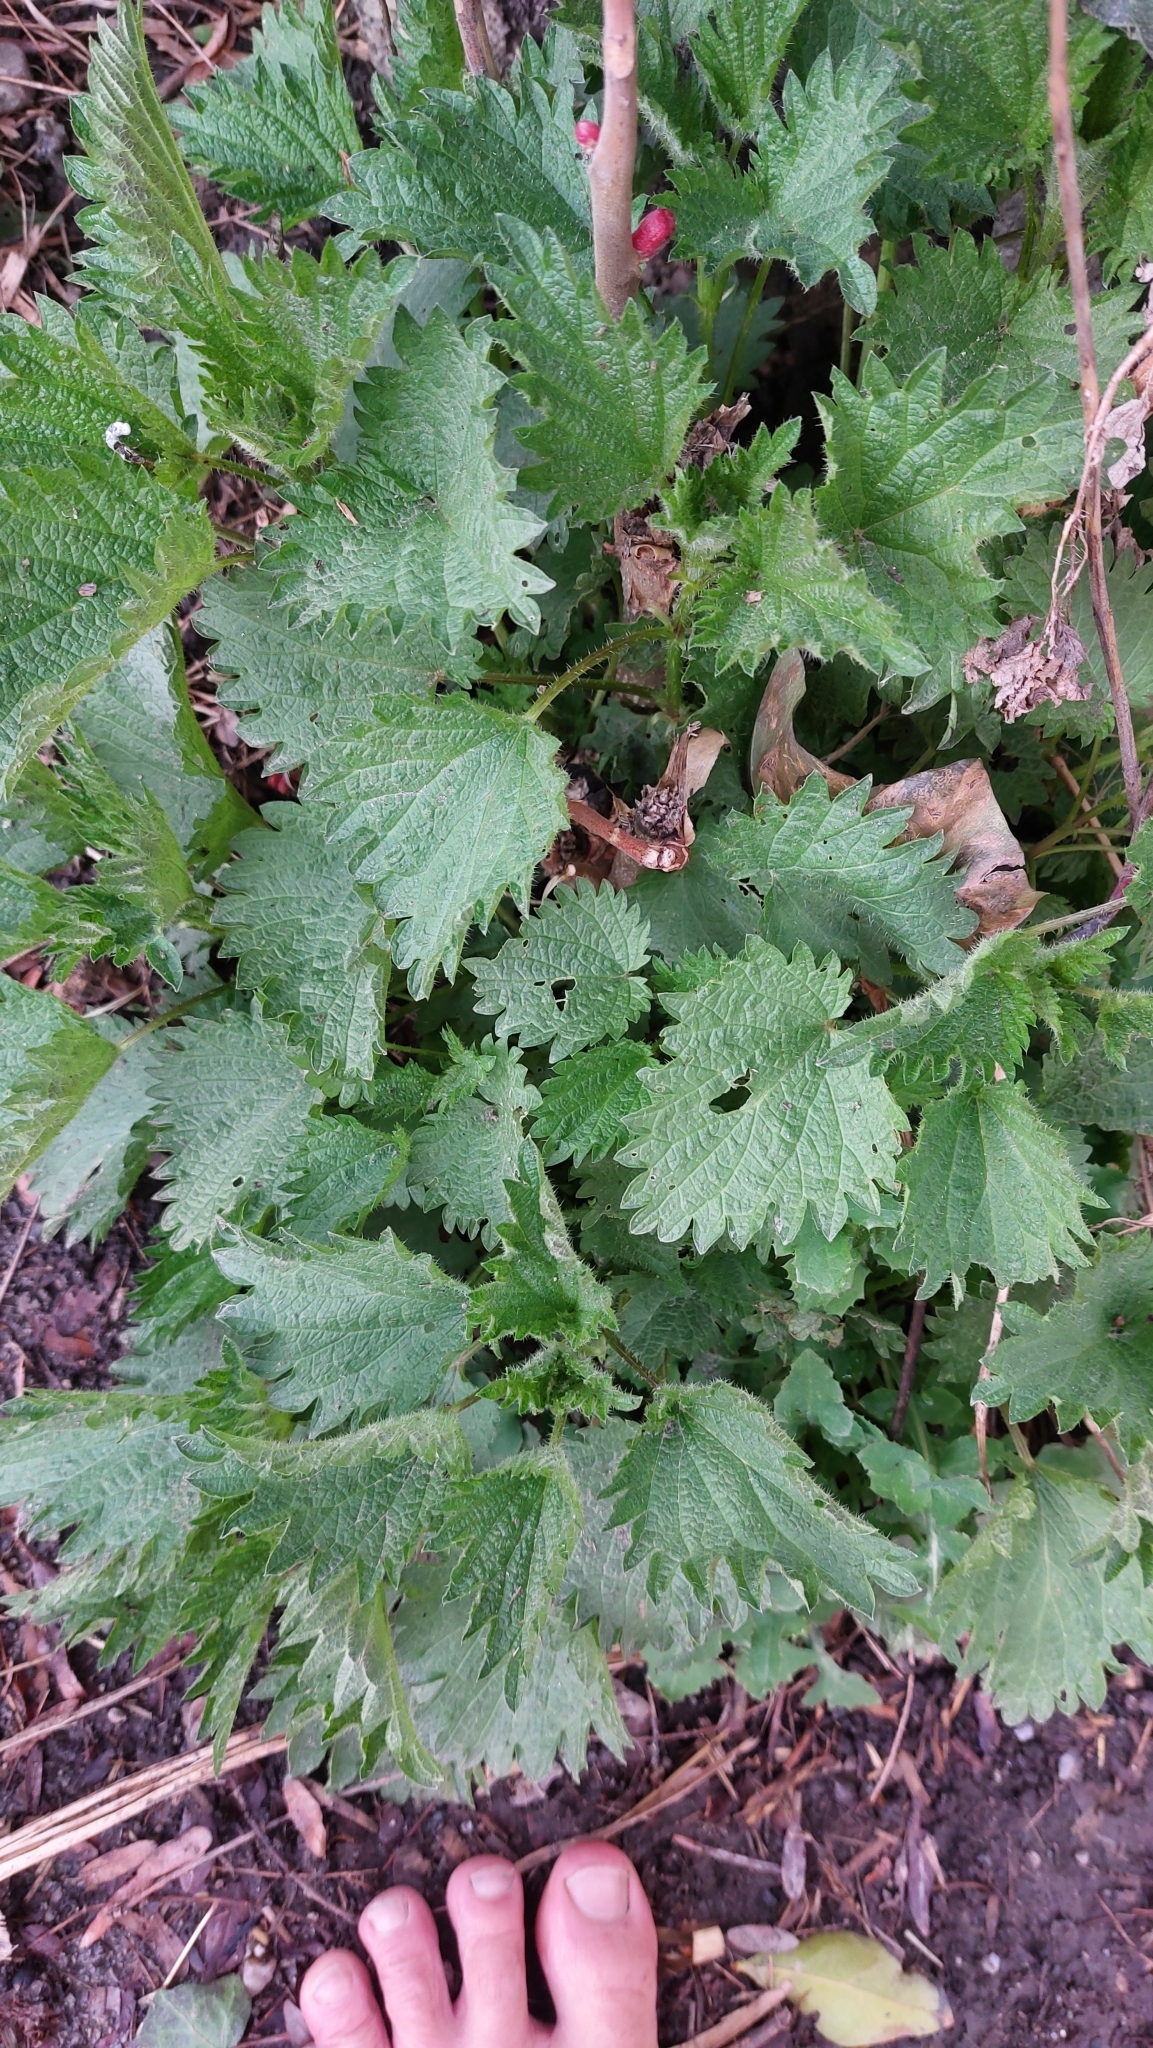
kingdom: Plantae
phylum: Tracheophyta
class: Magnoliopsida
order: Rosales
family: Urticaceae
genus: Urtica
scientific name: Urtica dioica
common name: Common nettle
